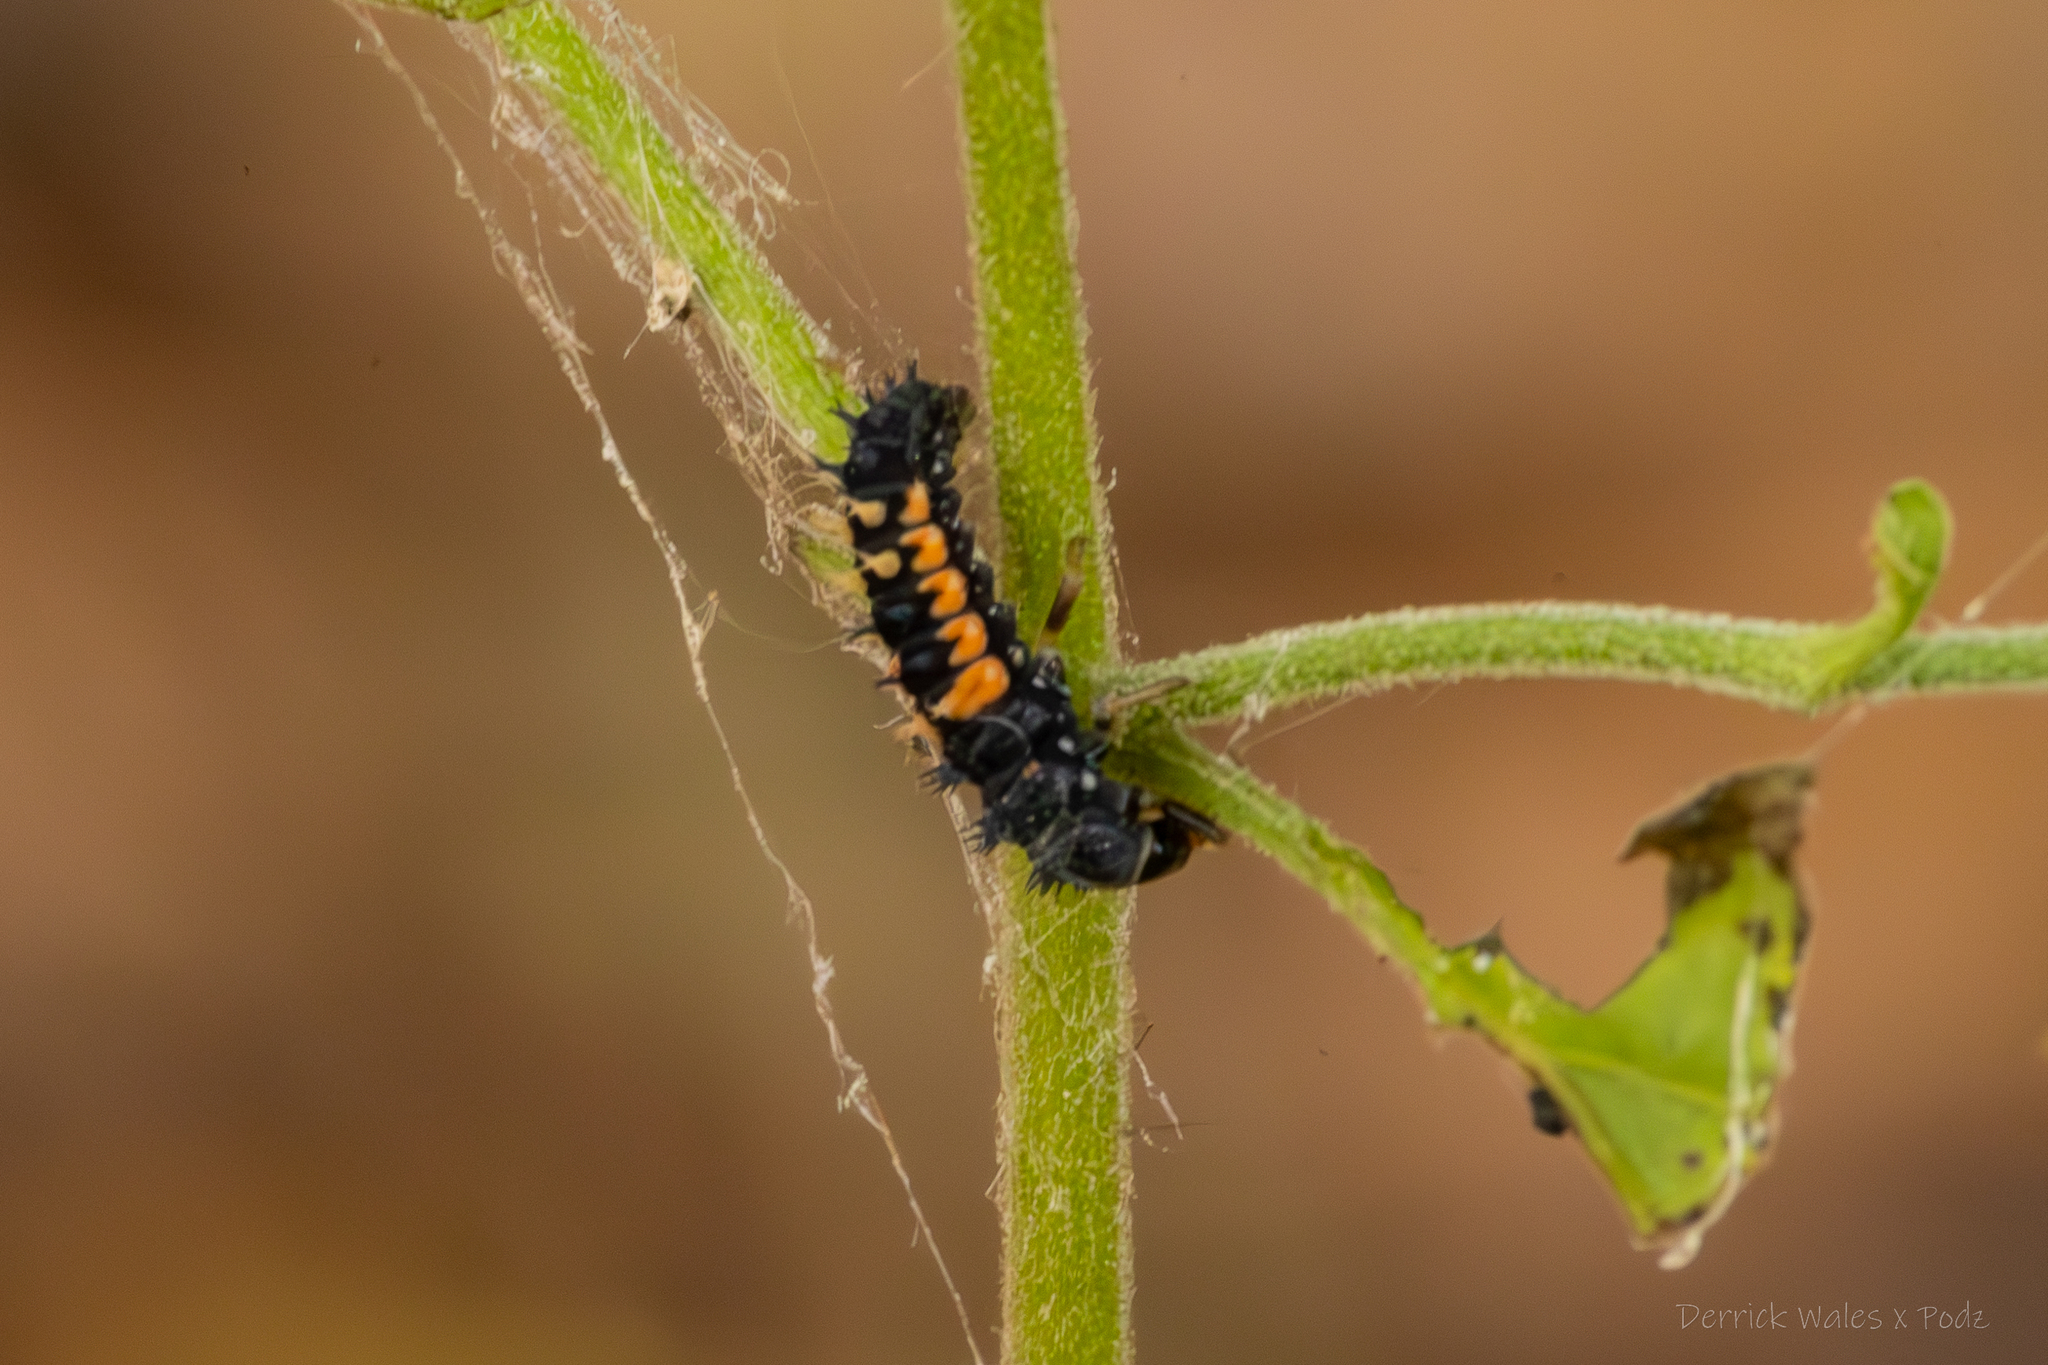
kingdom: Animalia
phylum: Arthropoda
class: Insecta
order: Coleoptera
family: Coccinellidae
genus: Harmonia
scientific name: Harmonia axyridis
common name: Harlequin ladybird
